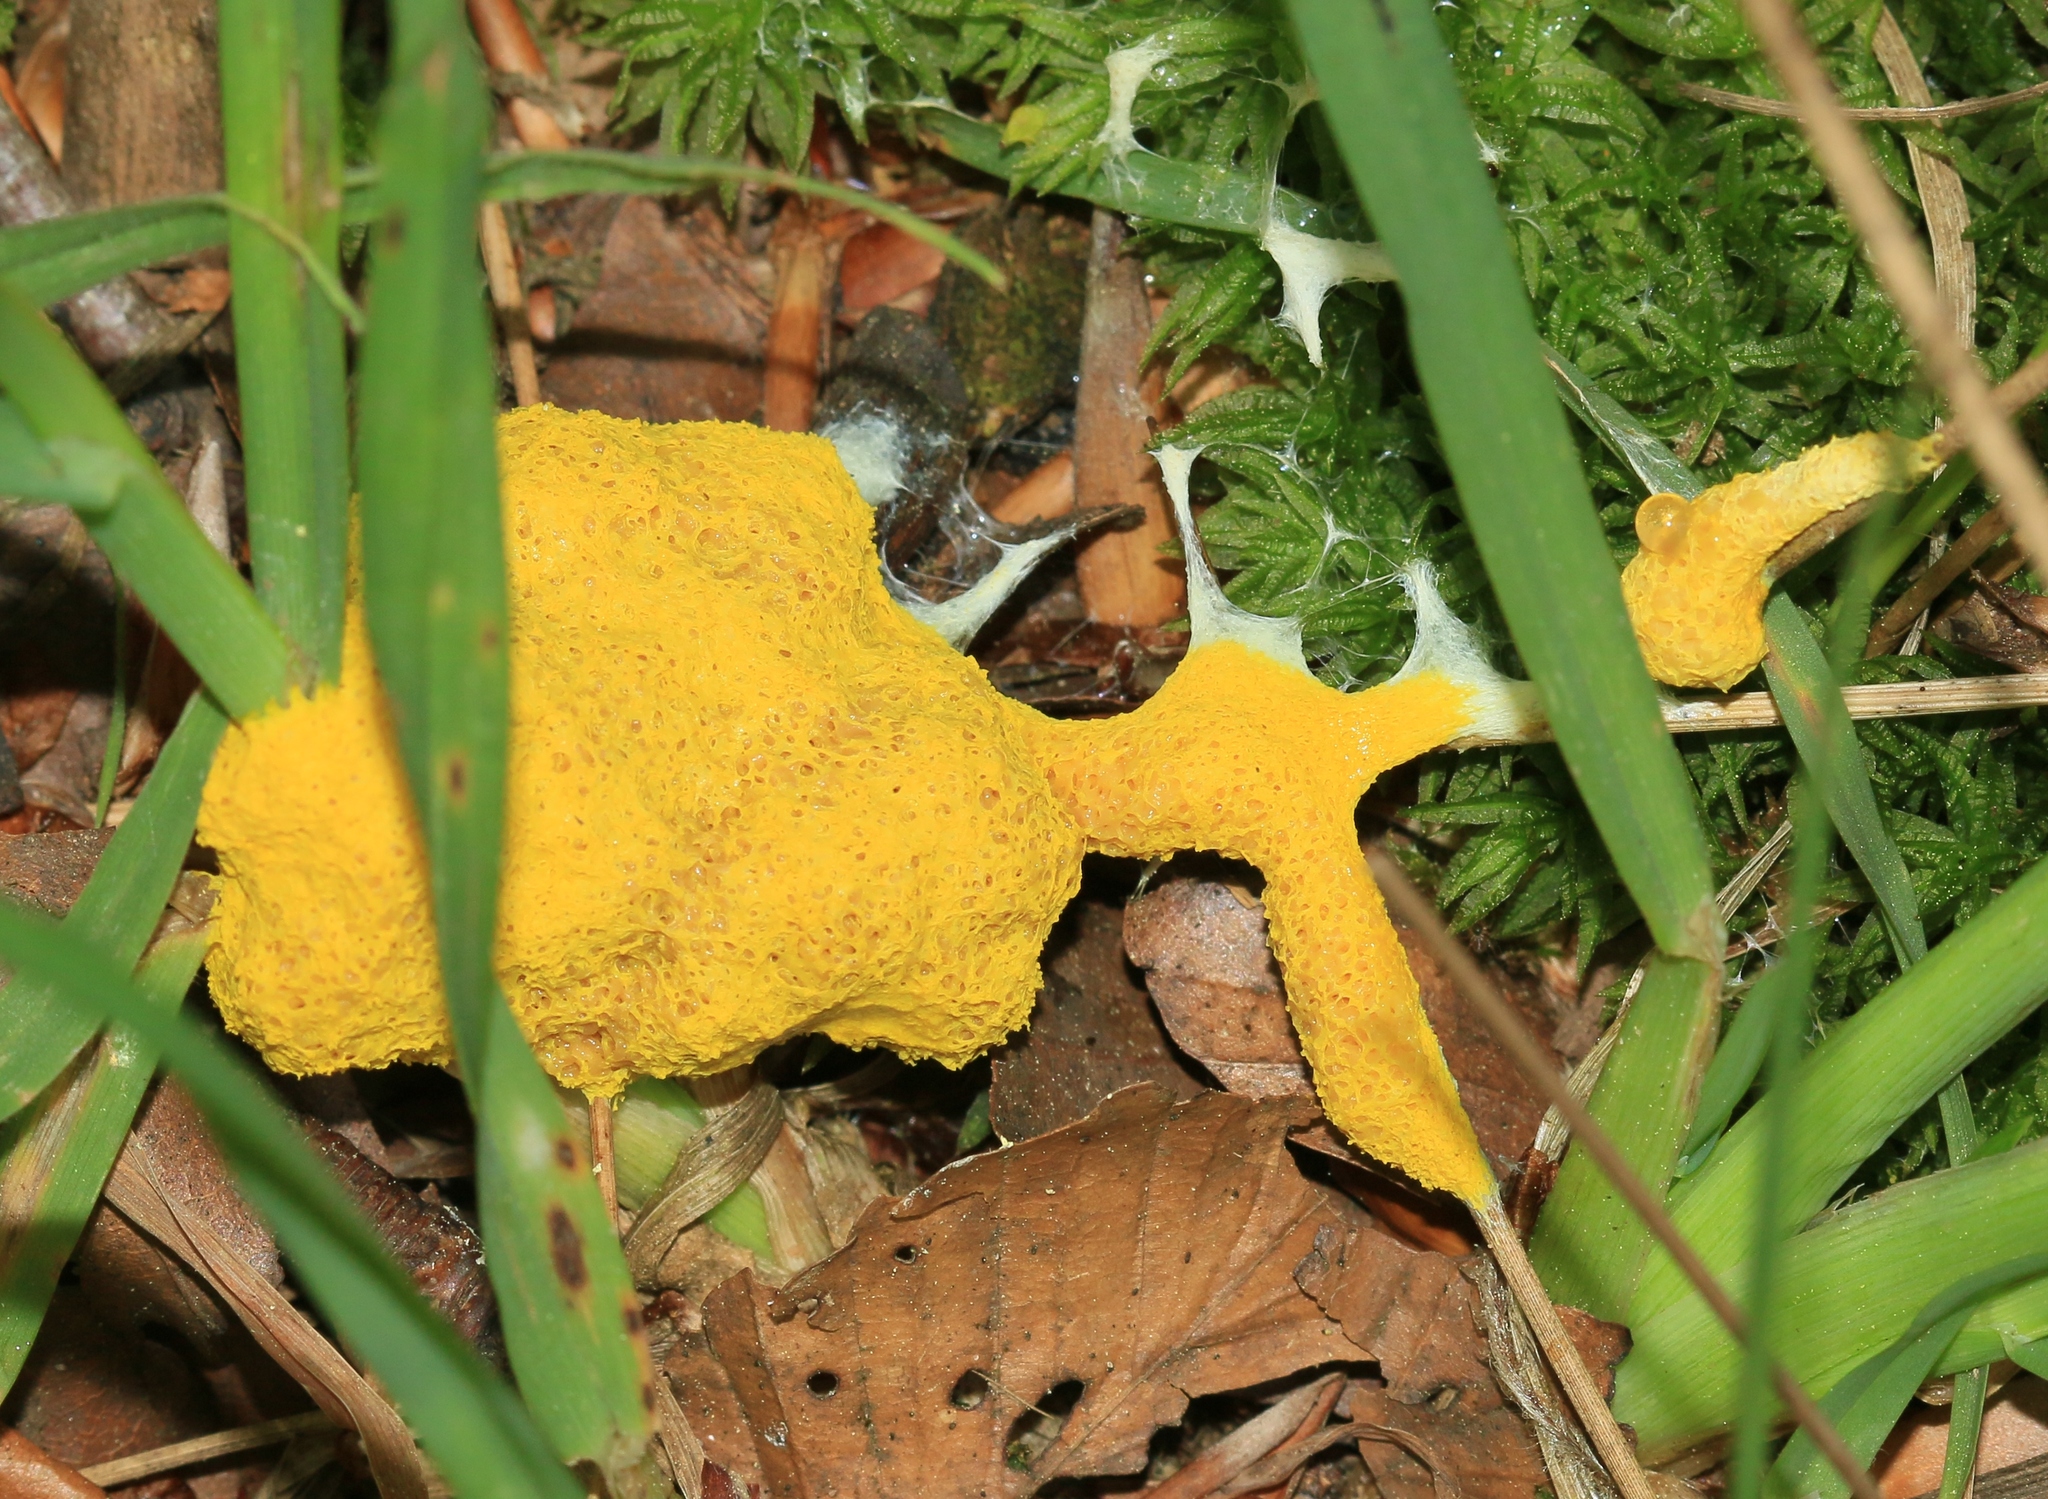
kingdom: Protozoa
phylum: Mycetozoa
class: Myxomycetes
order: Physarales
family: Physaraceae
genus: Fuligo
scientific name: Fuligo
